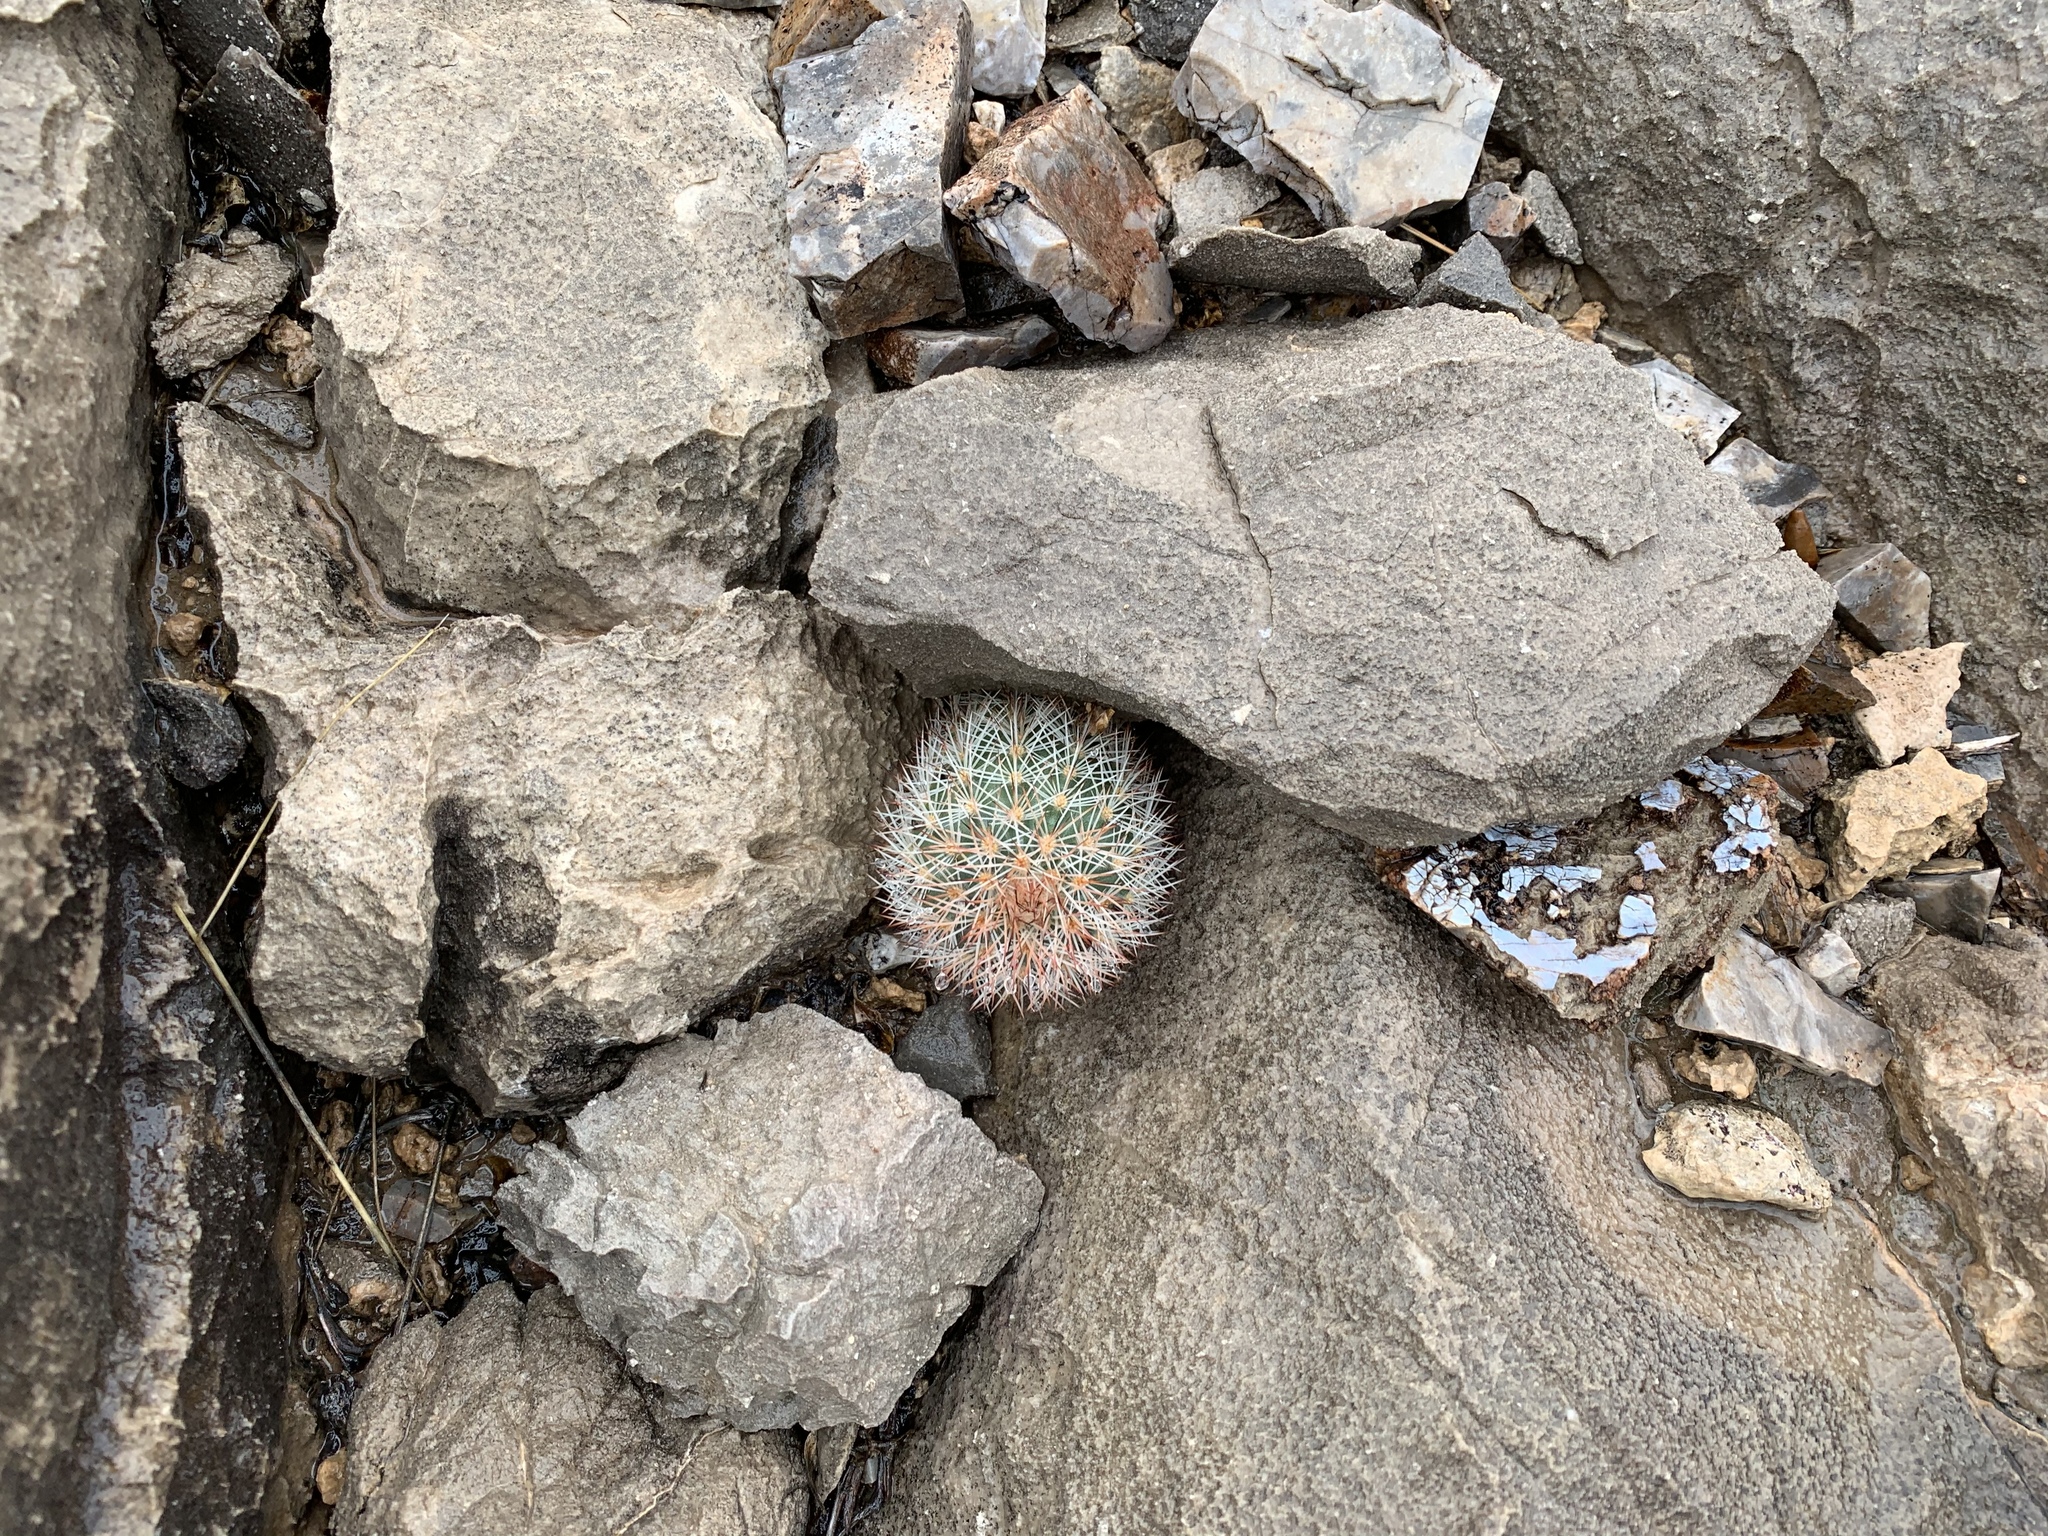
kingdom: Plantae
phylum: Tracheophyta
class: Magnoliopsida
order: Caryophyllales
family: Cactaceae
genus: Echinocereus
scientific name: Echinocereus dasyacanthus
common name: Spiny hedgehog cactus
